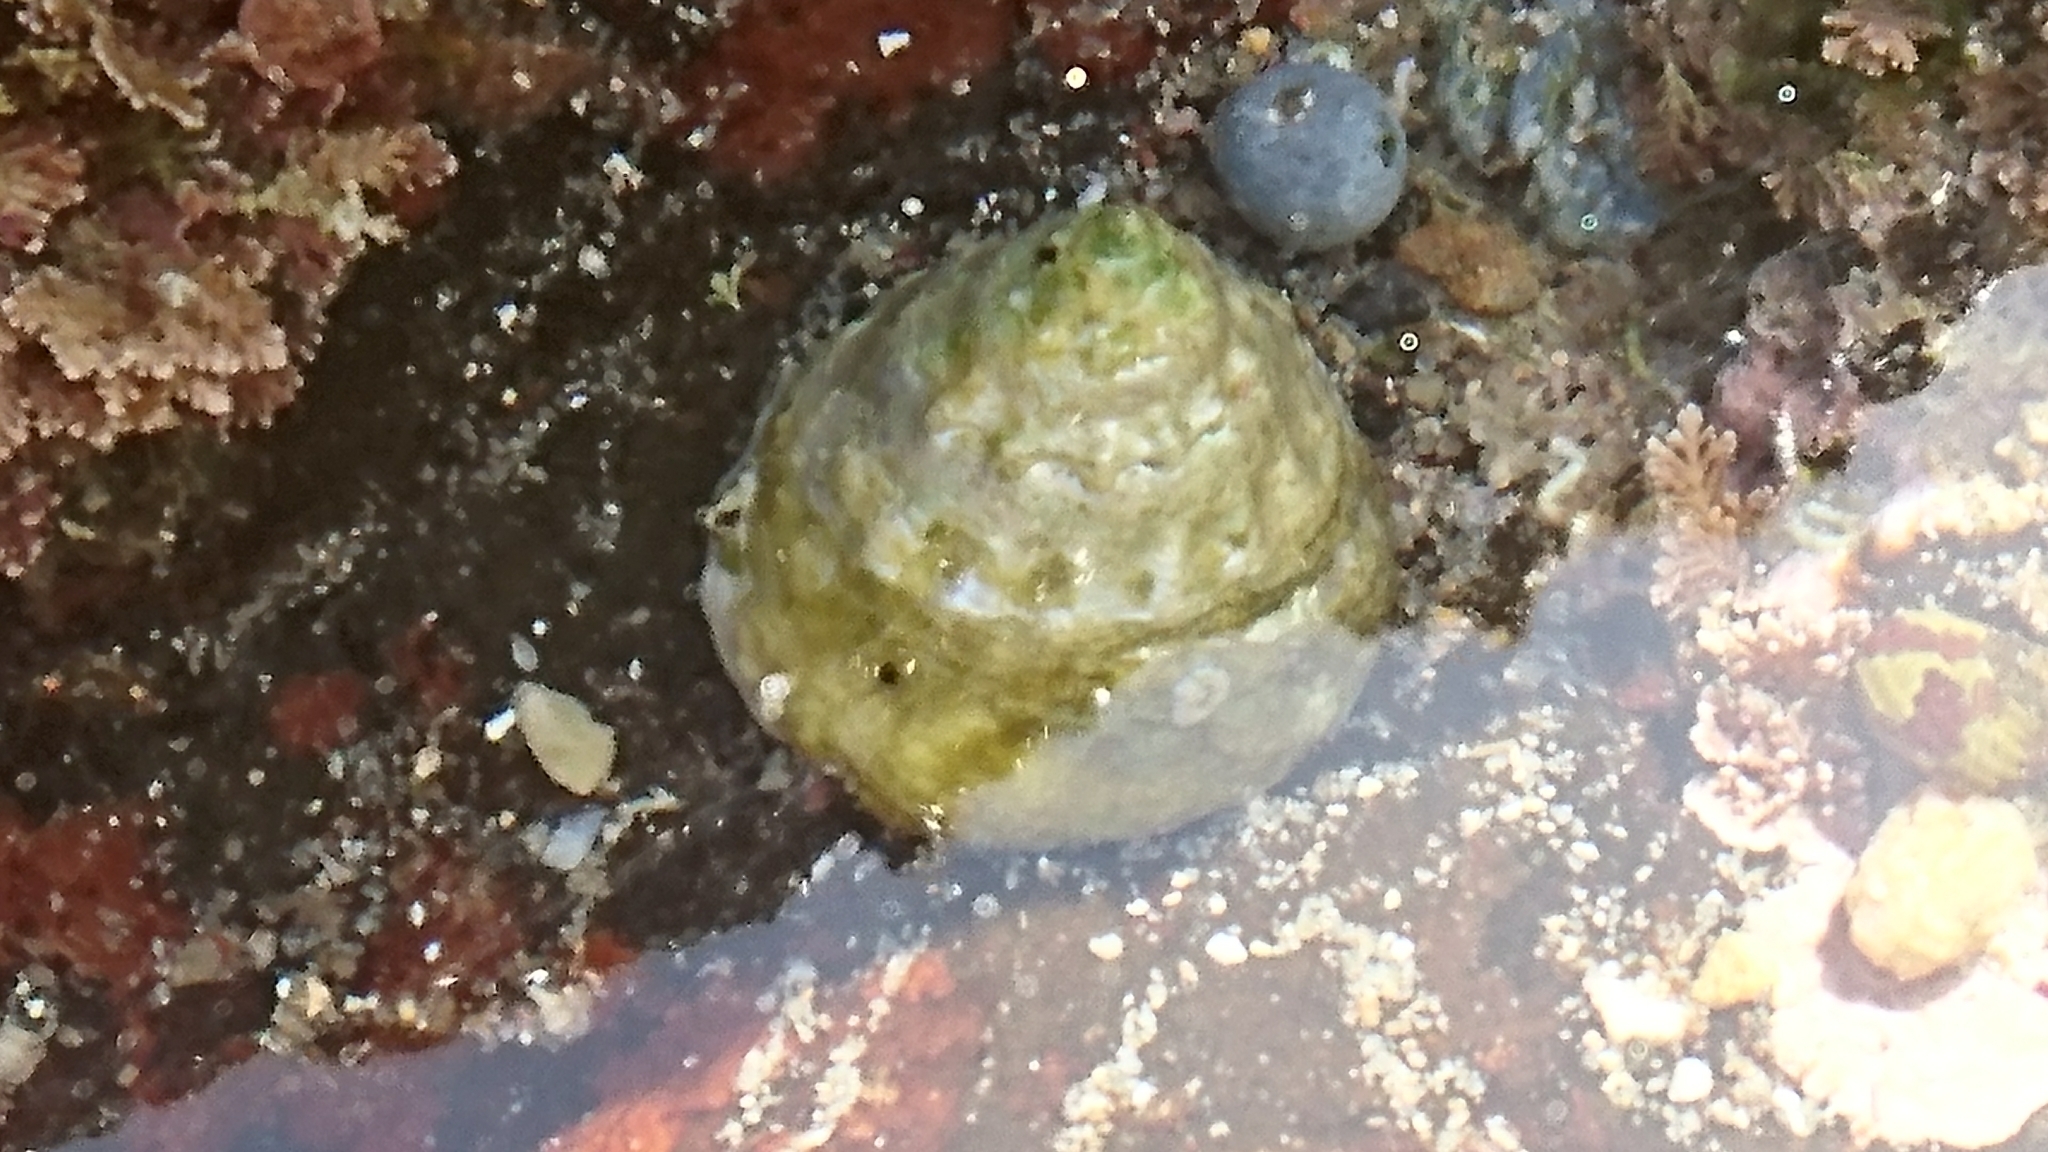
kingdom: Animalia
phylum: Mollusca
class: Gastropoda
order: Trochida
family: Turbinidae
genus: Astralium
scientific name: Astralium tentoriiforme
